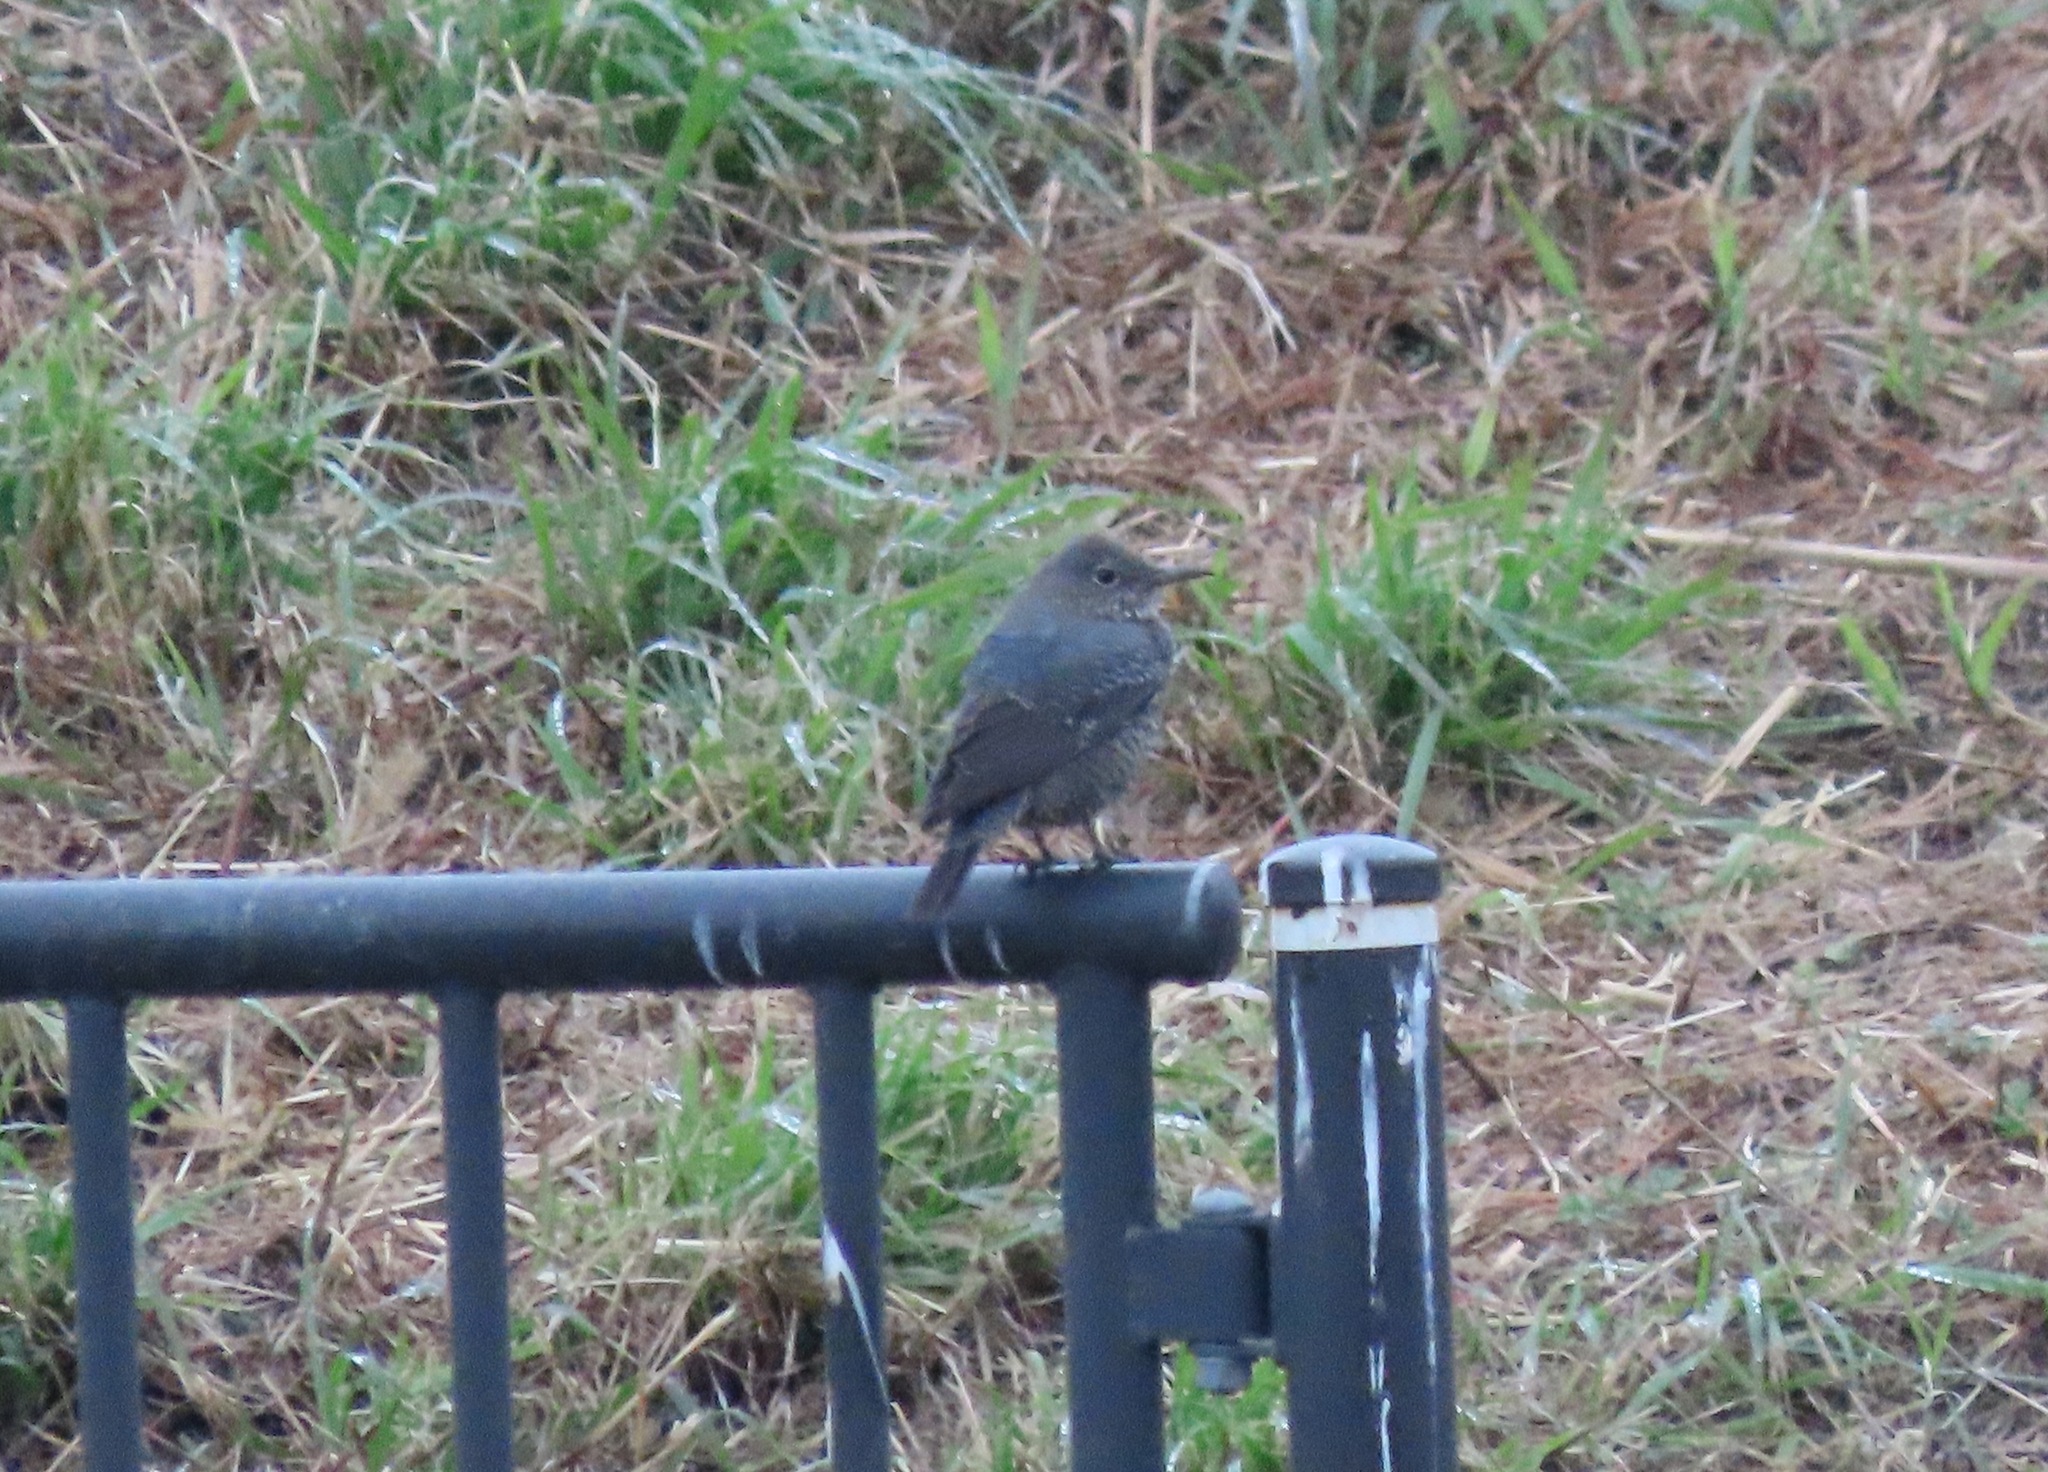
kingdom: Animalia
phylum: Chordata
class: Aves
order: Passeriformes
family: Muscicapidae
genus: Monticola
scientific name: Monticola solitarius
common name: Blue rock thrush
